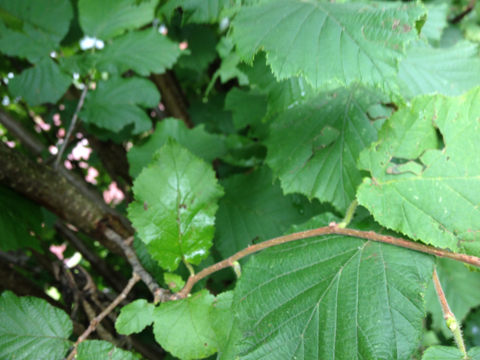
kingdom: Plantae
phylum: Tracheophyta
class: Magnoliopsida
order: Fagales
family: Betulaceae
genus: Corylus
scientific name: Corylus avellana
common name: European hazel
